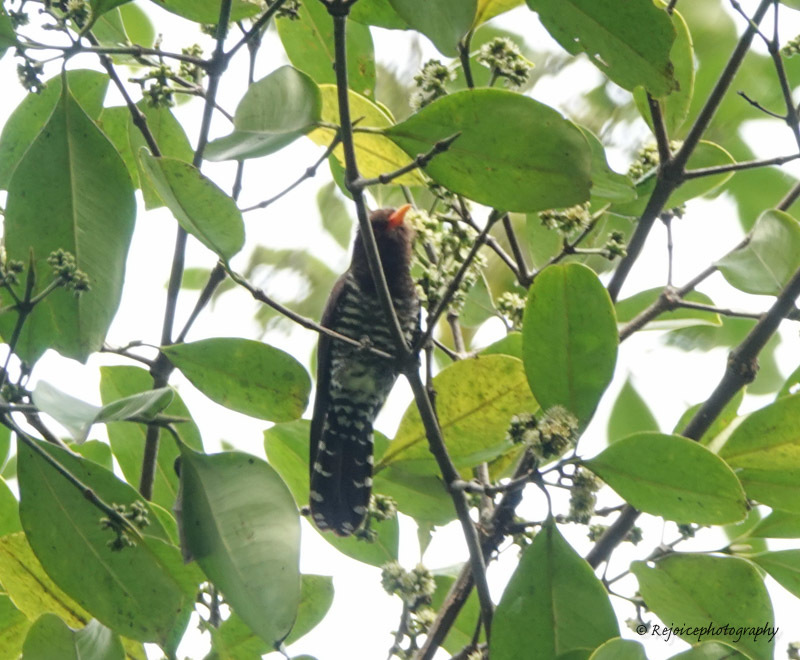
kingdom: Animalia
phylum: Chordata
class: Aves
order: Cuculiformes
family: Cuculidae
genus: Chrysococcyx
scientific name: Chrysococcyx xanthorhynchus
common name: Violet cuckoo
